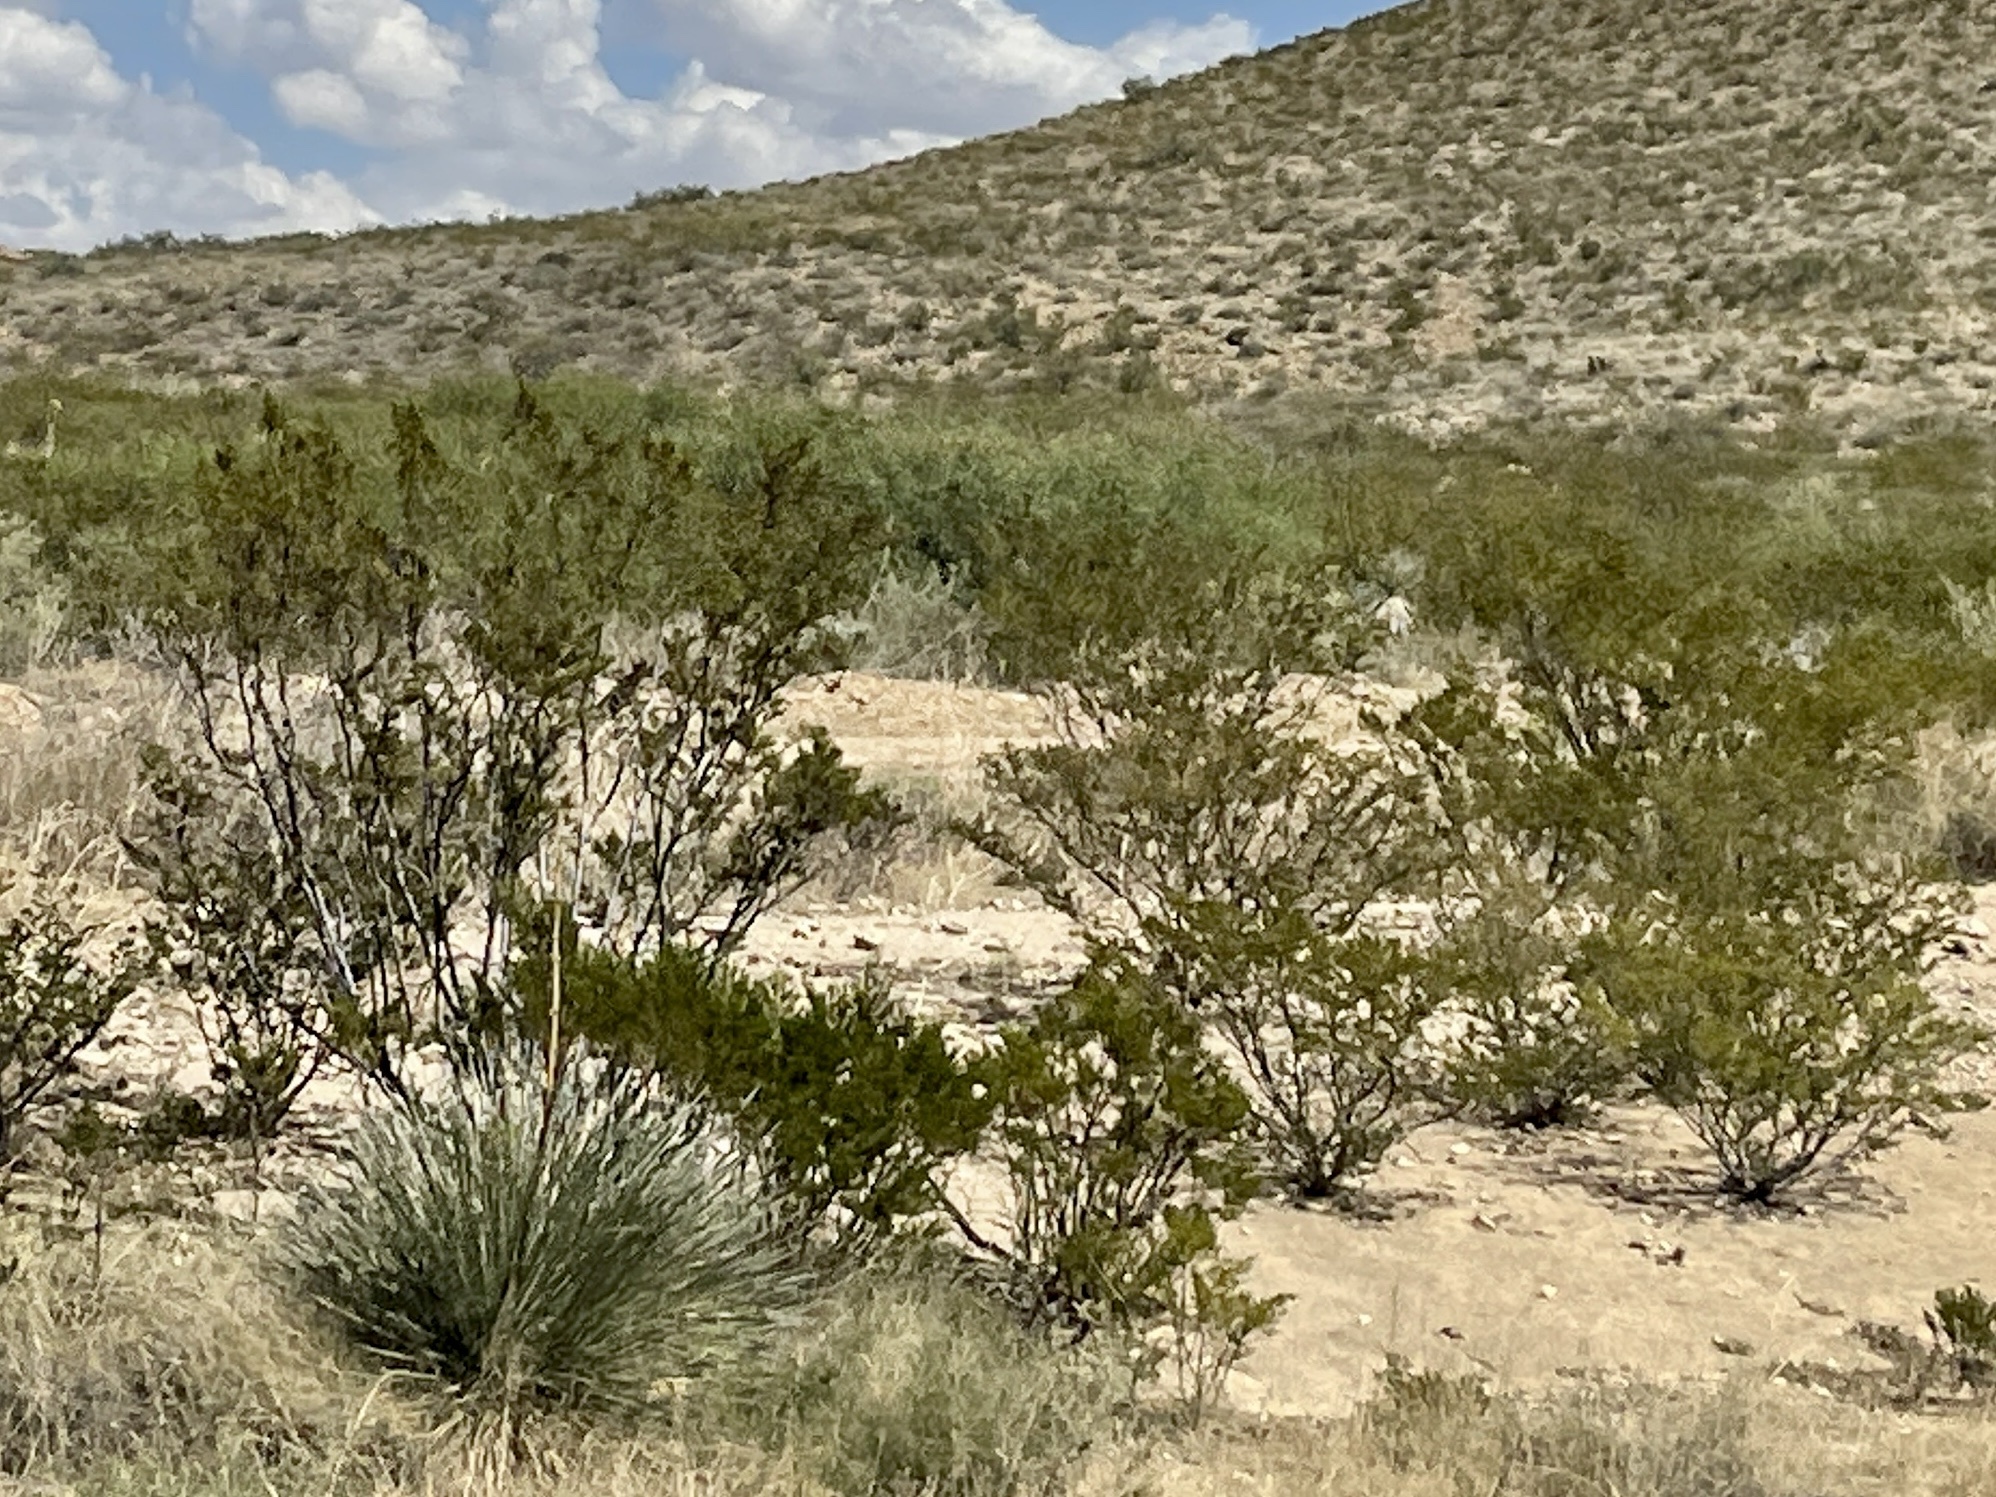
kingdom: Plantae
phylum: Tracheophyta
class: Magnoliopsida
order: Zygophyllales
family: Zygophyllaceae
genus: Larrea
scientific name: Larrea tridentata
